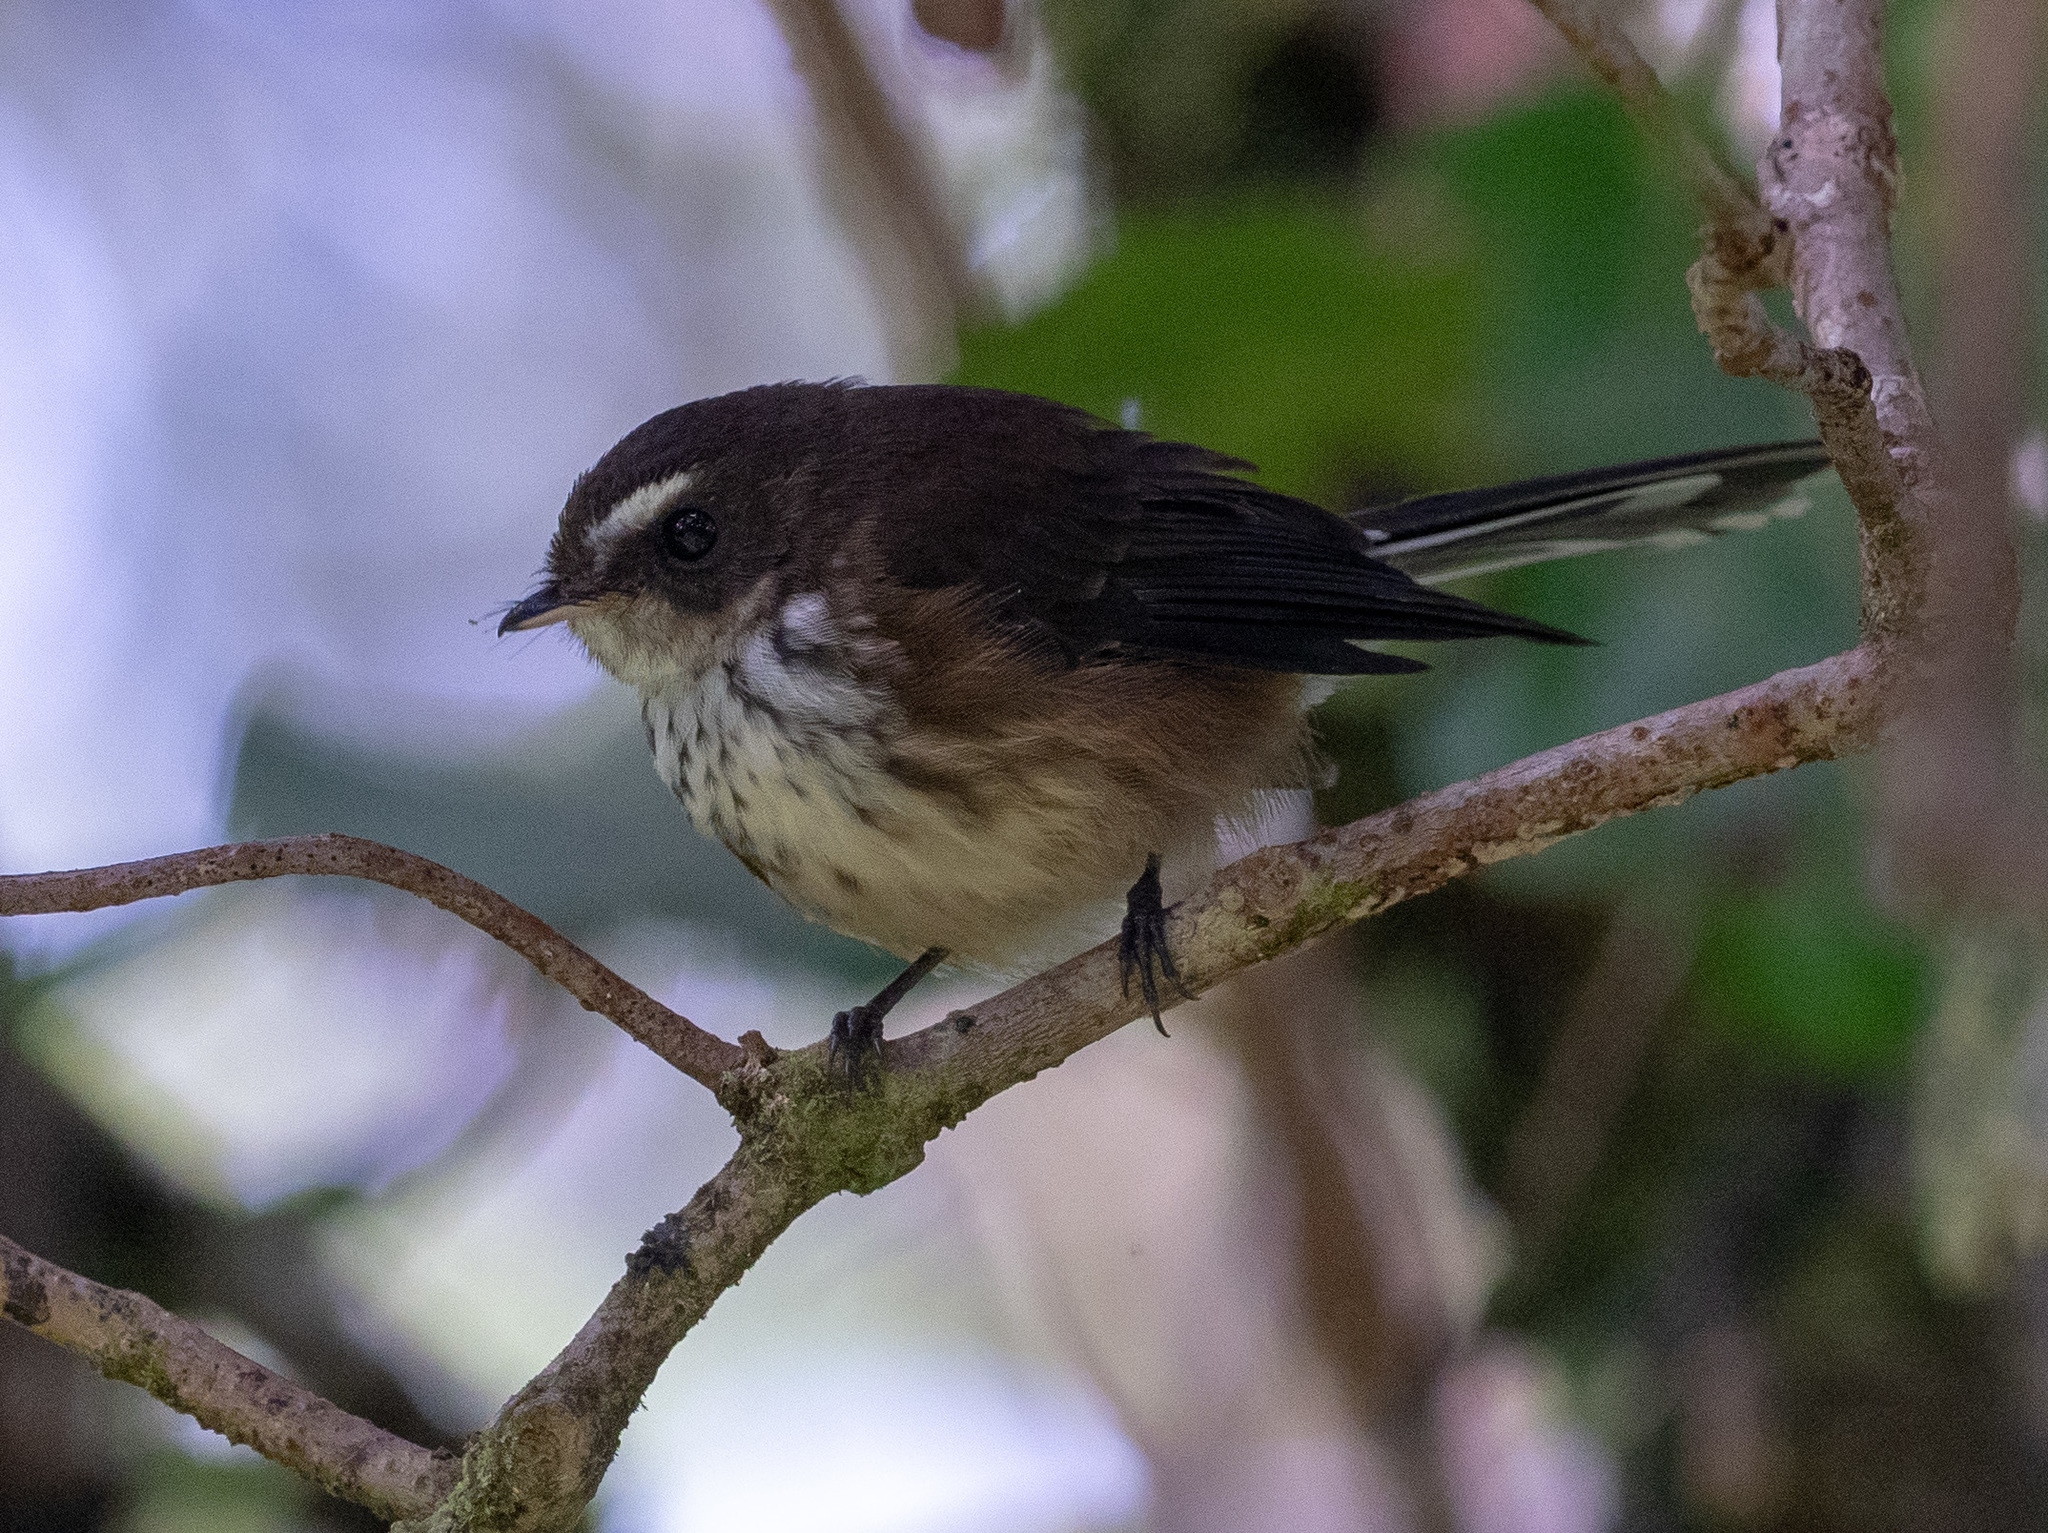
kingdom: Animalia
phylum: Chordata
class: Aves
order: Passeriformes
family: Rhipiduridae
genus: Rhipidura
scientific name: Rhipidura layardi
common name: Fiji streaked fantail
